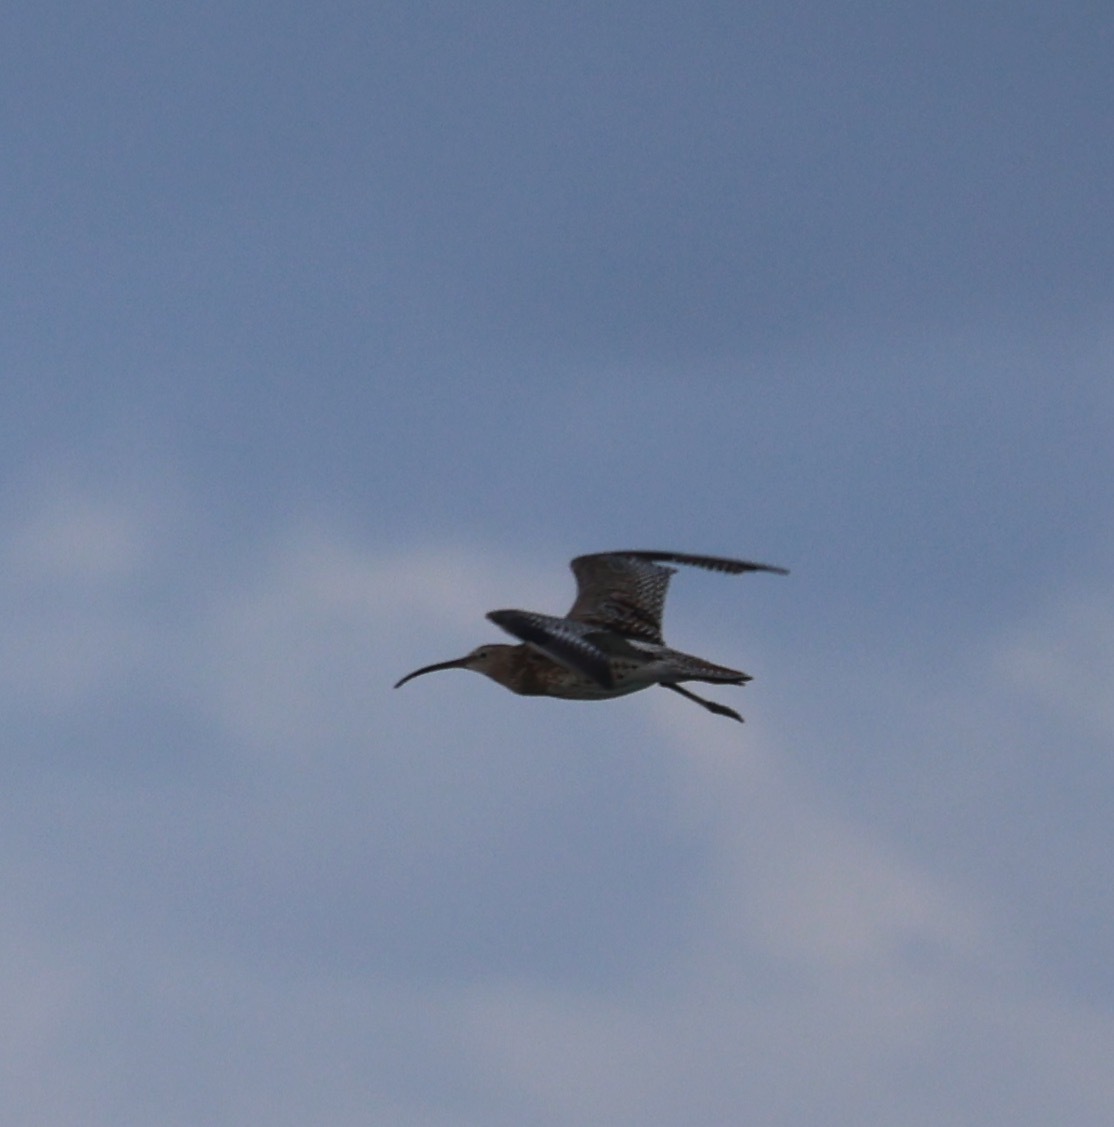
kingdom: Animalia
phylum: Chordata
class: Aves
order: Charadriiformes
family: Scolopacidae
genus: Numenius
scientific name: Numenius arquata
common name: Eurasian curlew
